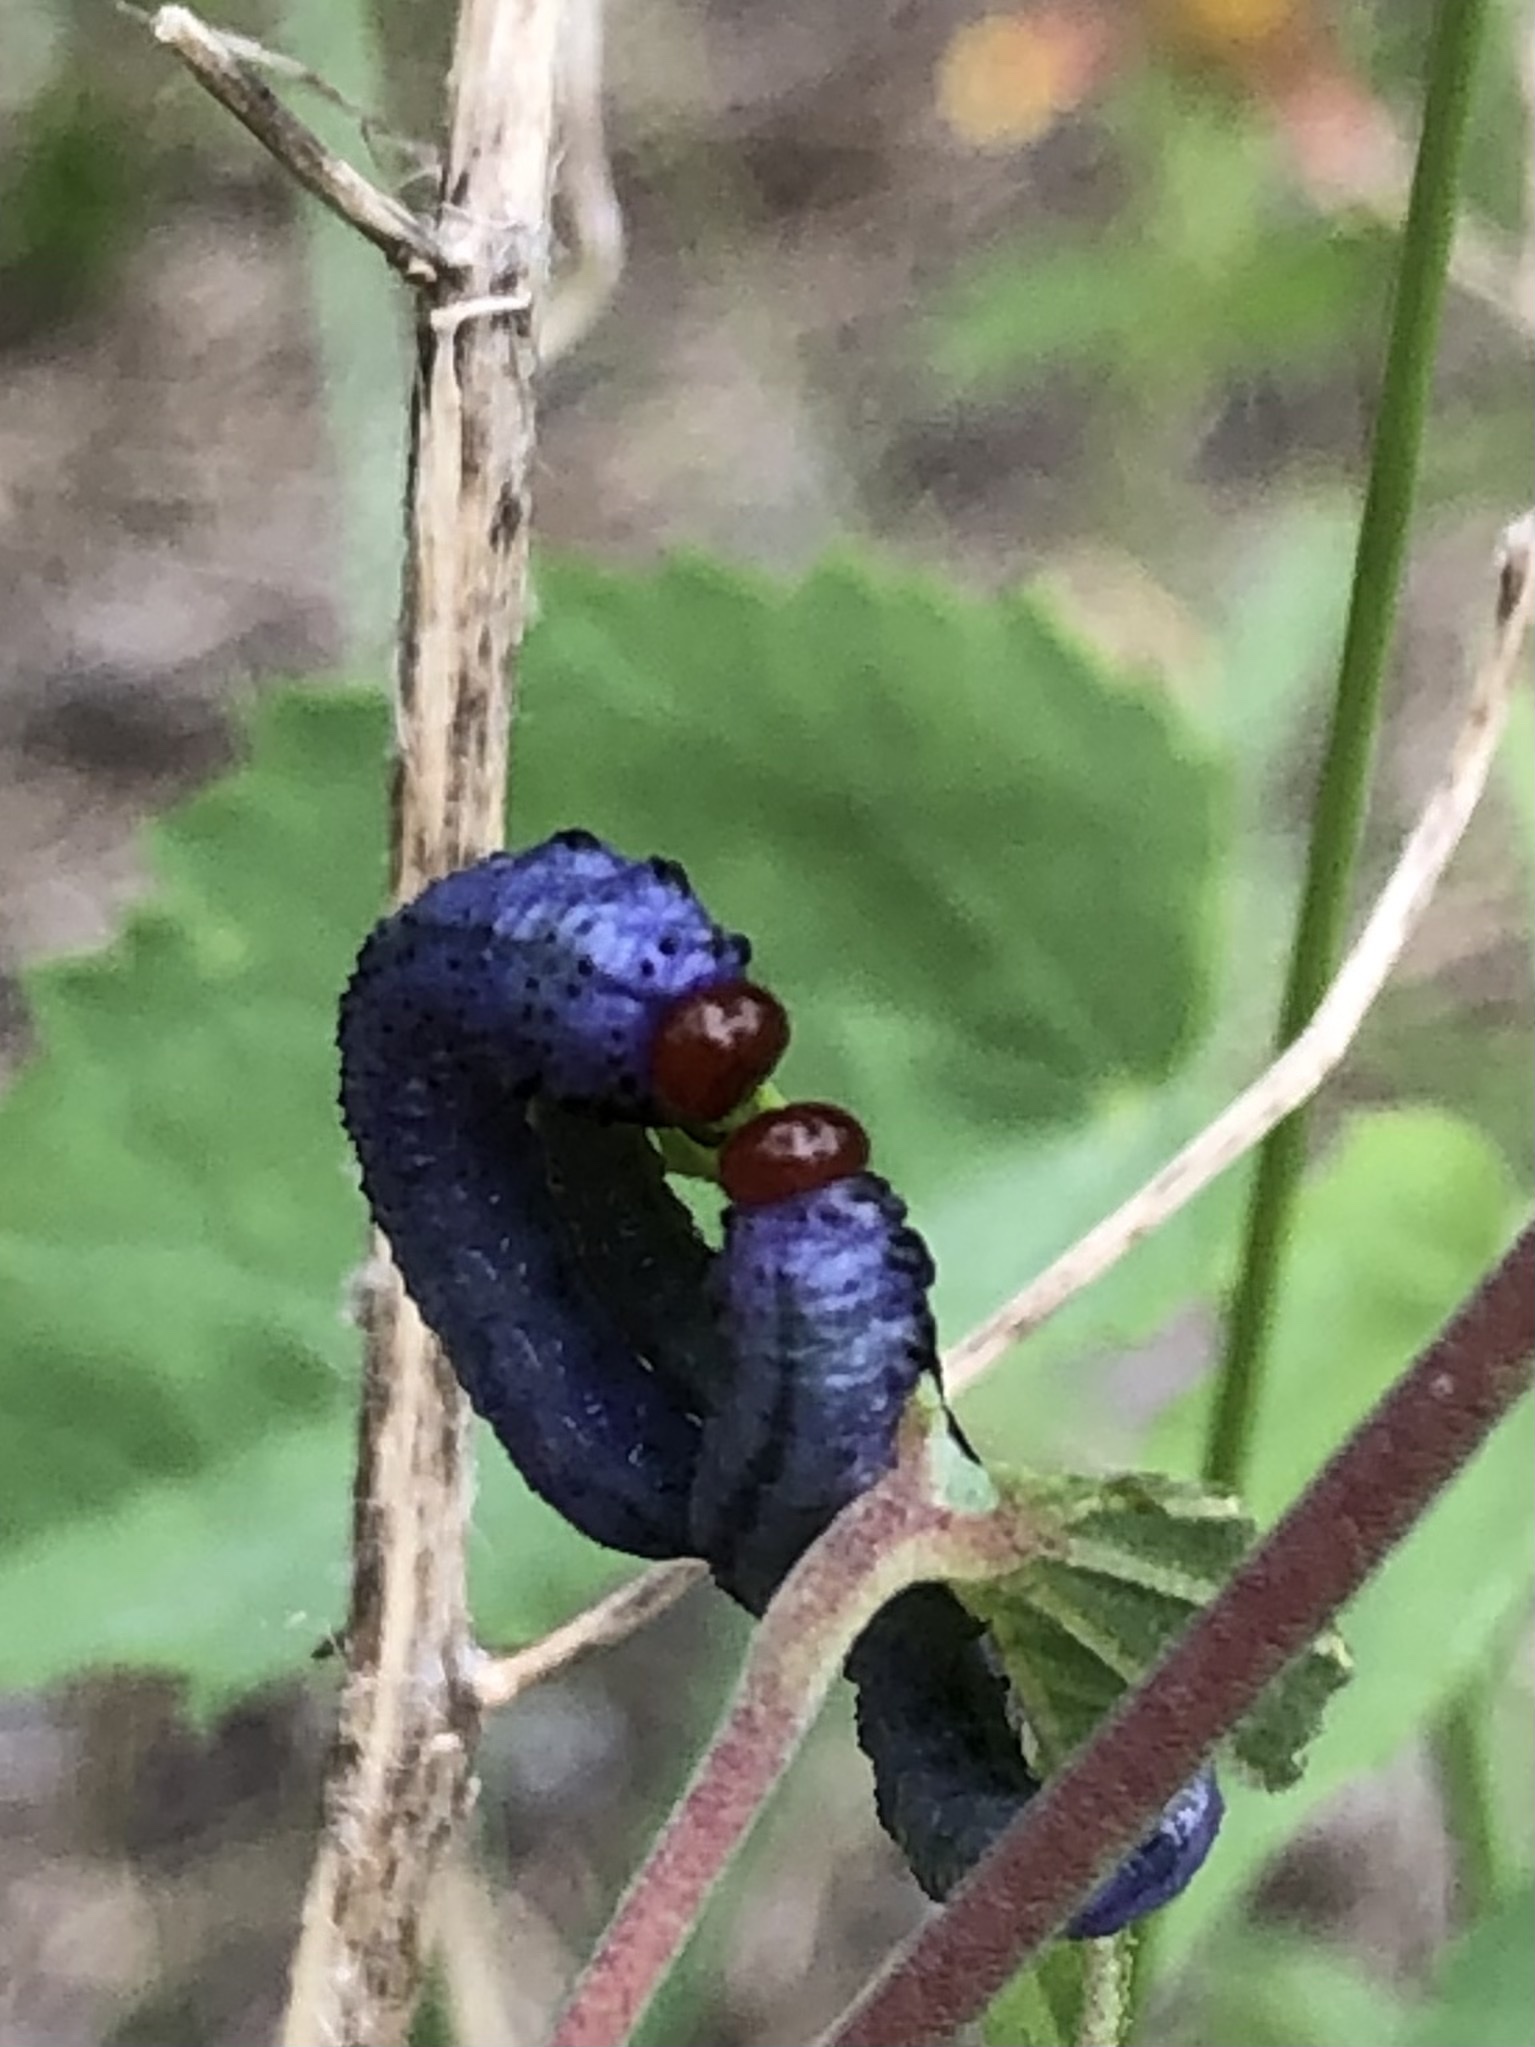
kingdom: Animalia
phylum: Arthropoda
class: Insecta
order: Hymenoptera
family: Argidae
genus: Neoptilia
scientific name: Neoptilia
